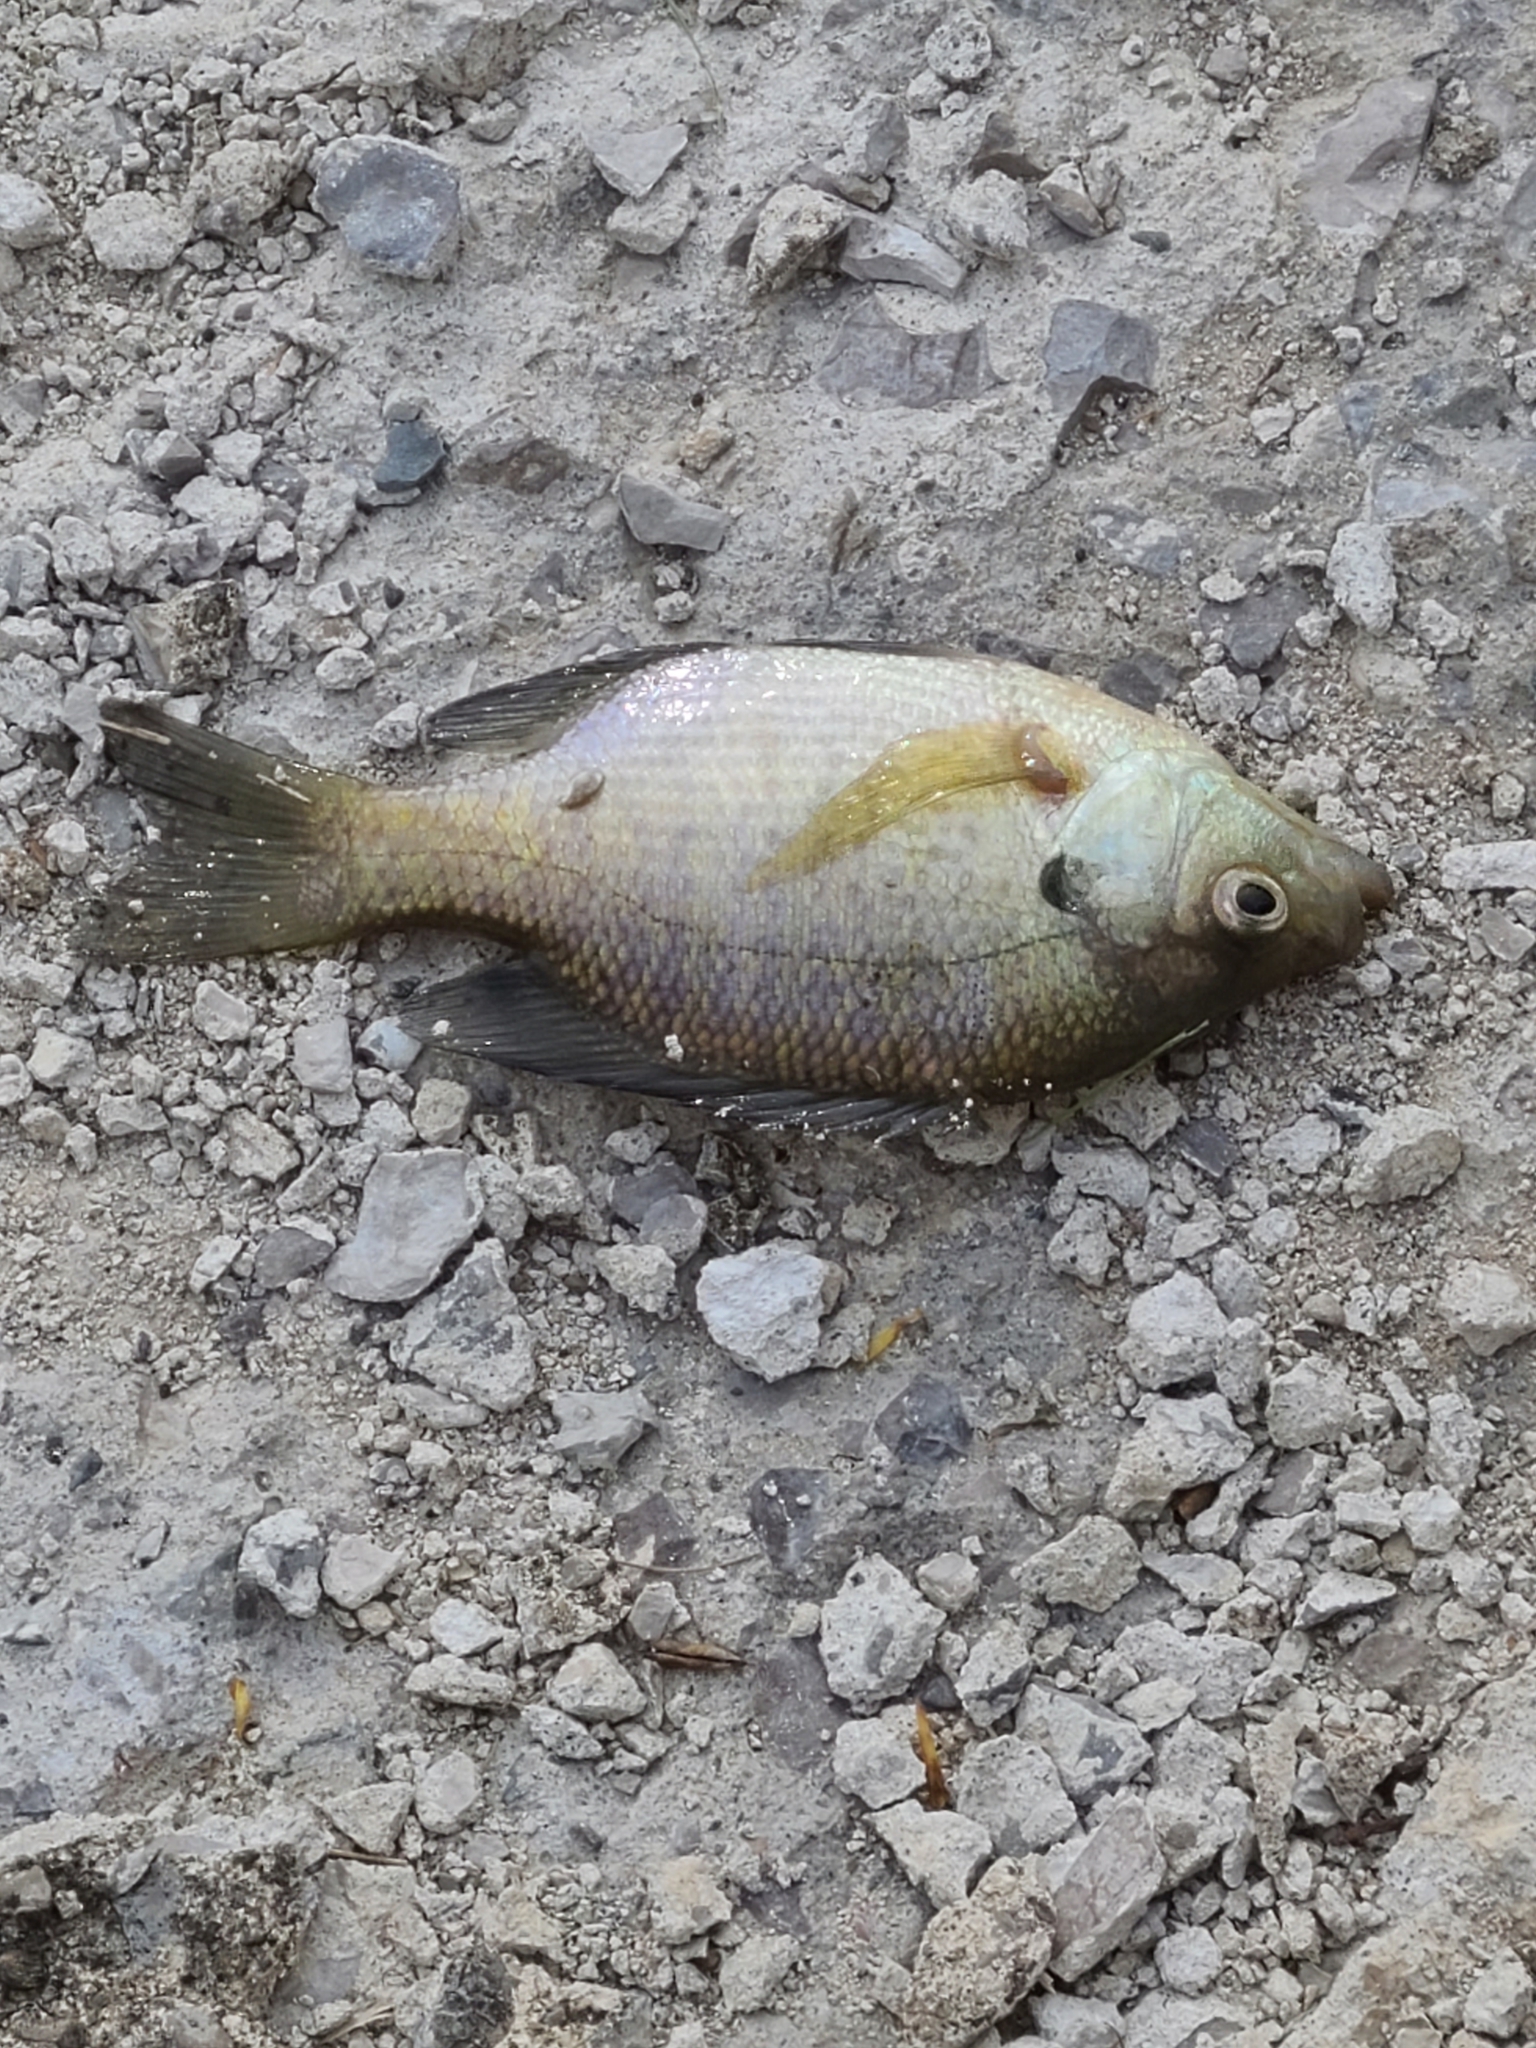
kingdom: Animalia
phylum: Chordata
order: Perciformes
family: Centrarchidae
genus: Lepomis
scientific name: Lepomis macrochirus
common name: Bluegill
